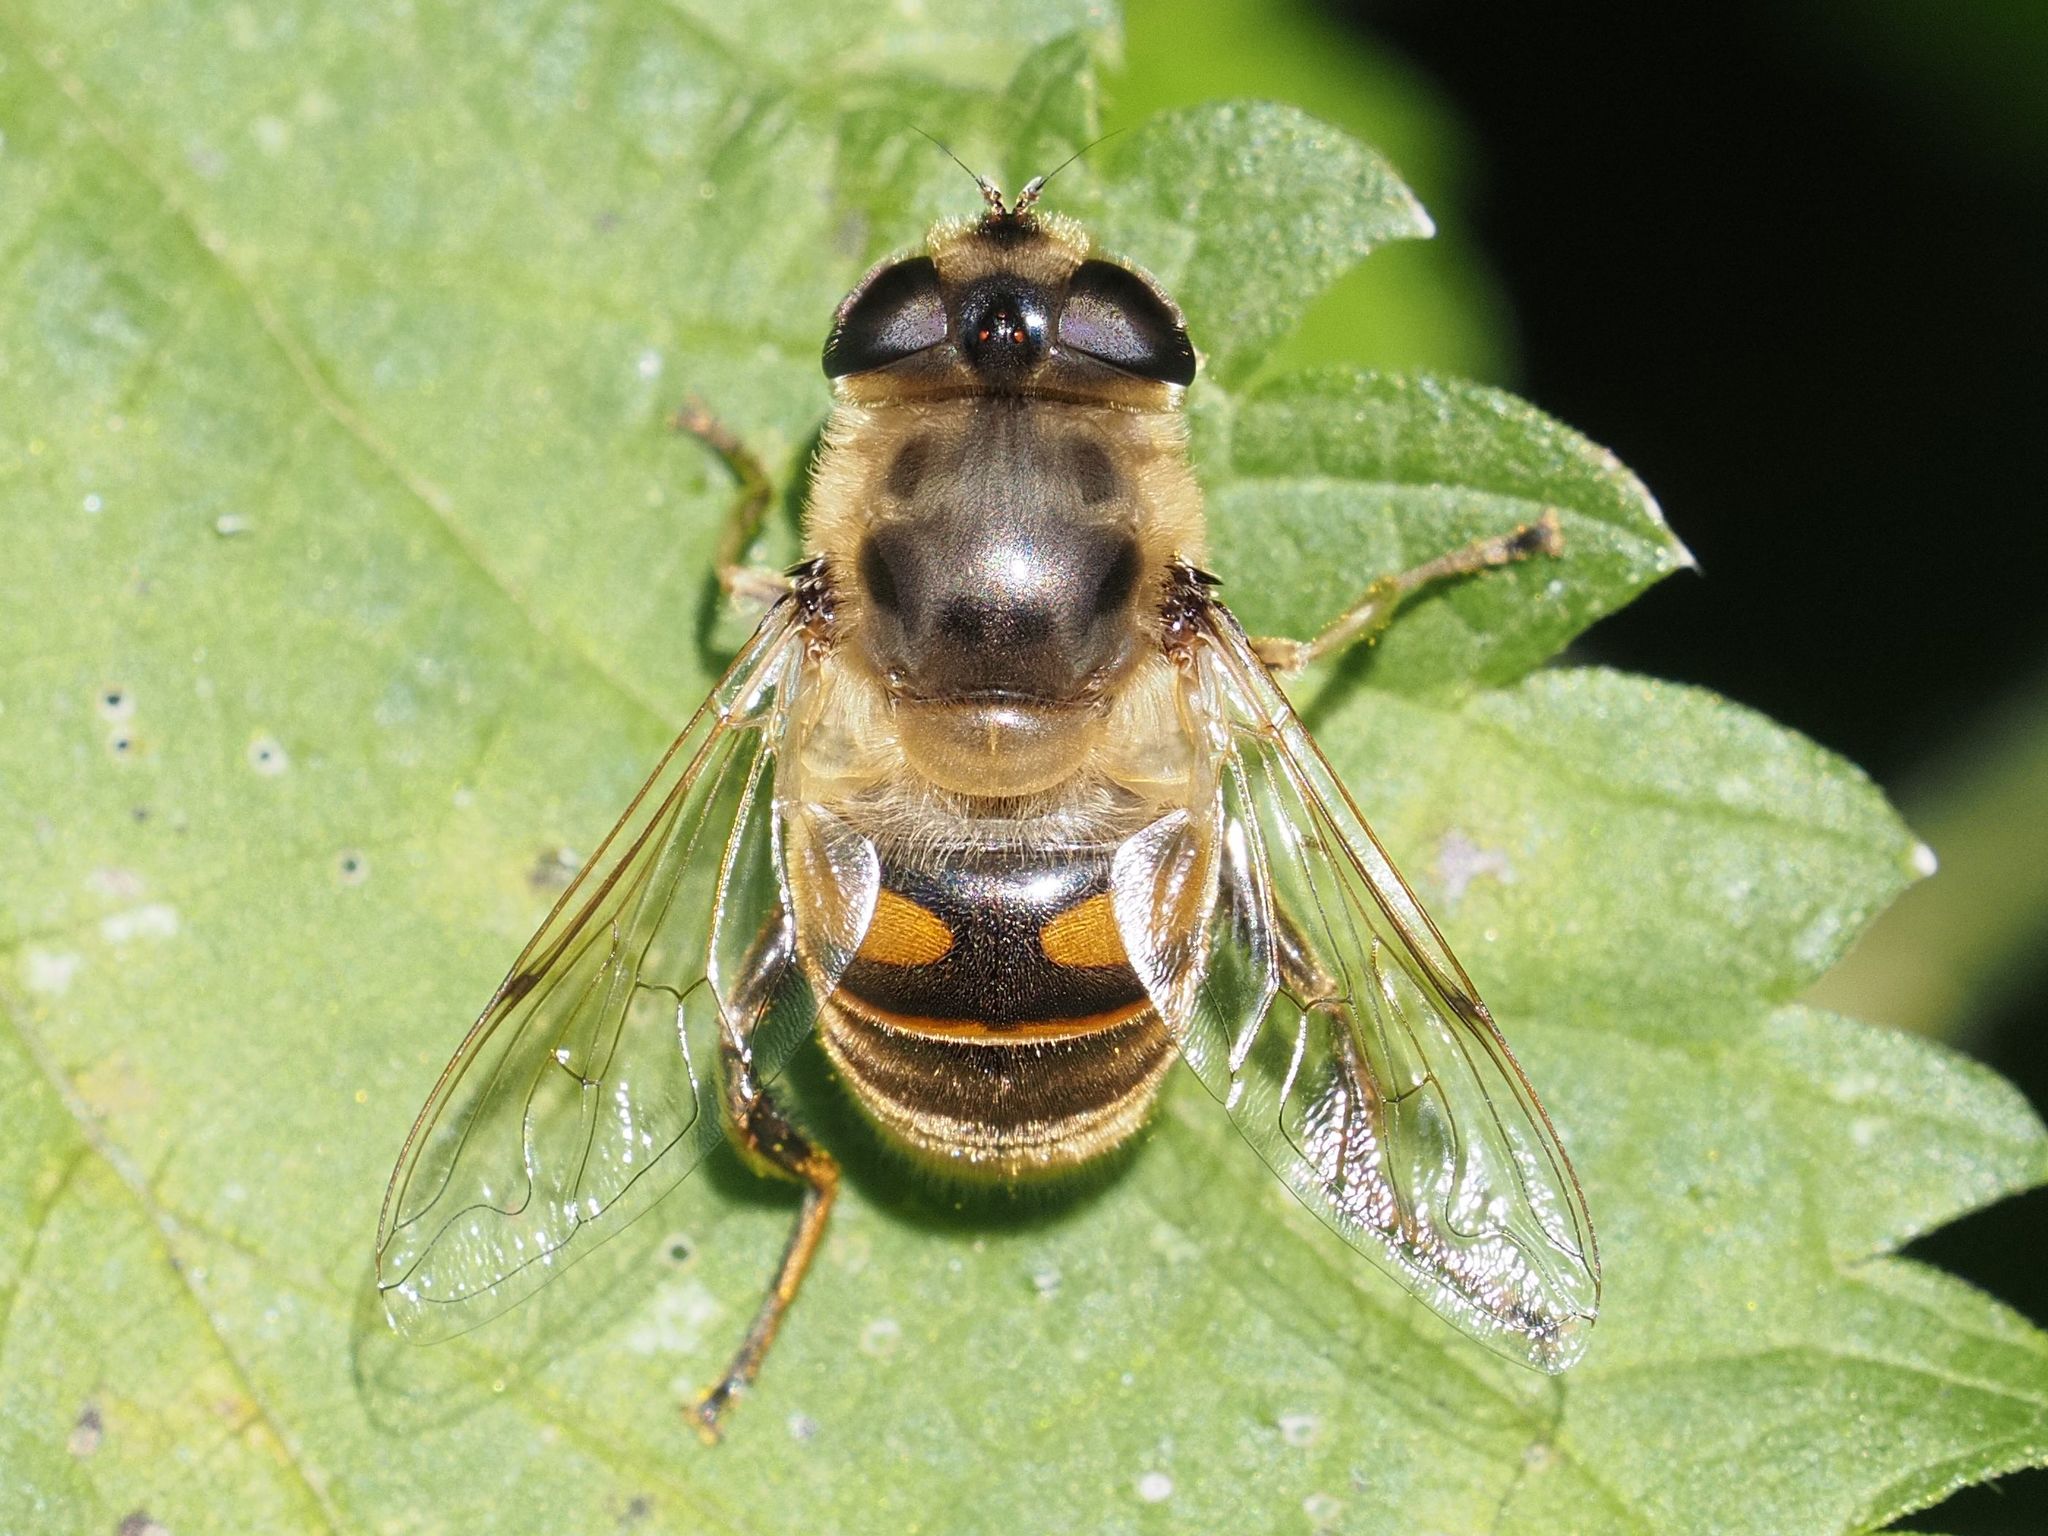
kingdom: Animalia
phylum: Arthropoda
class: Insecta
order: Diptera
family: Syrphidae
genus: Eristalis
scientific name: Eristalis tenax
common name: Drone fly
